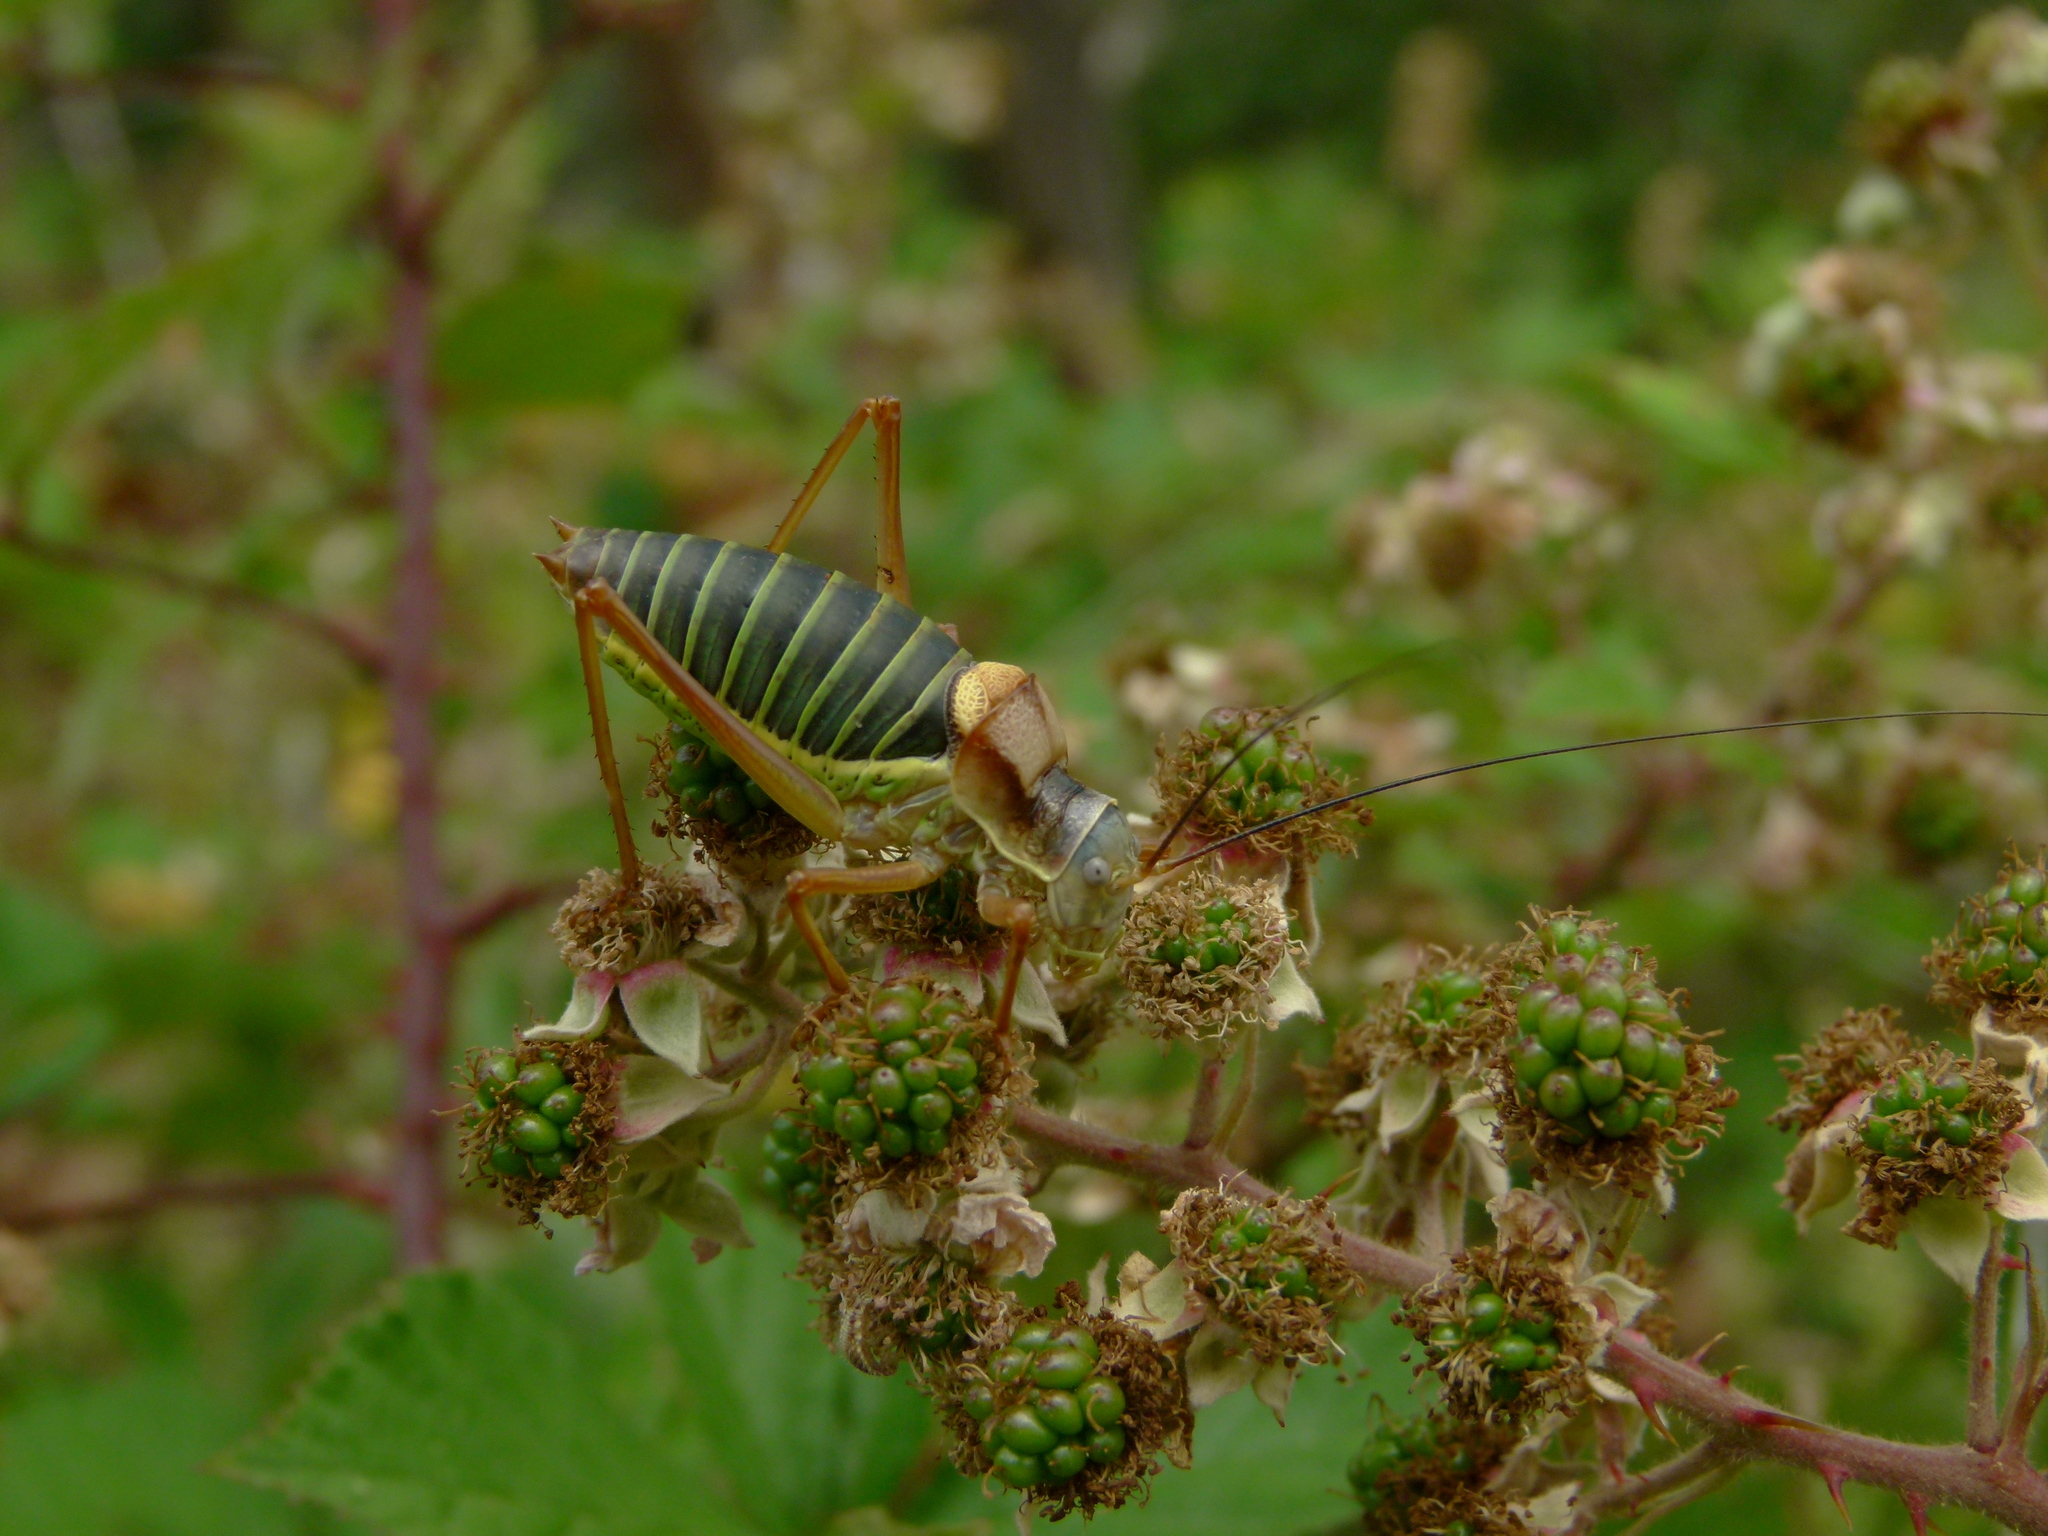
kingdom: Animalia
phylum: Arthropoda
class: Insecta
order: Orthoptera
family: Tettigoniidae
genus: Ephippiger
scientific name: Ephippiger diurnus
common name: Western saddle bush-cricket
